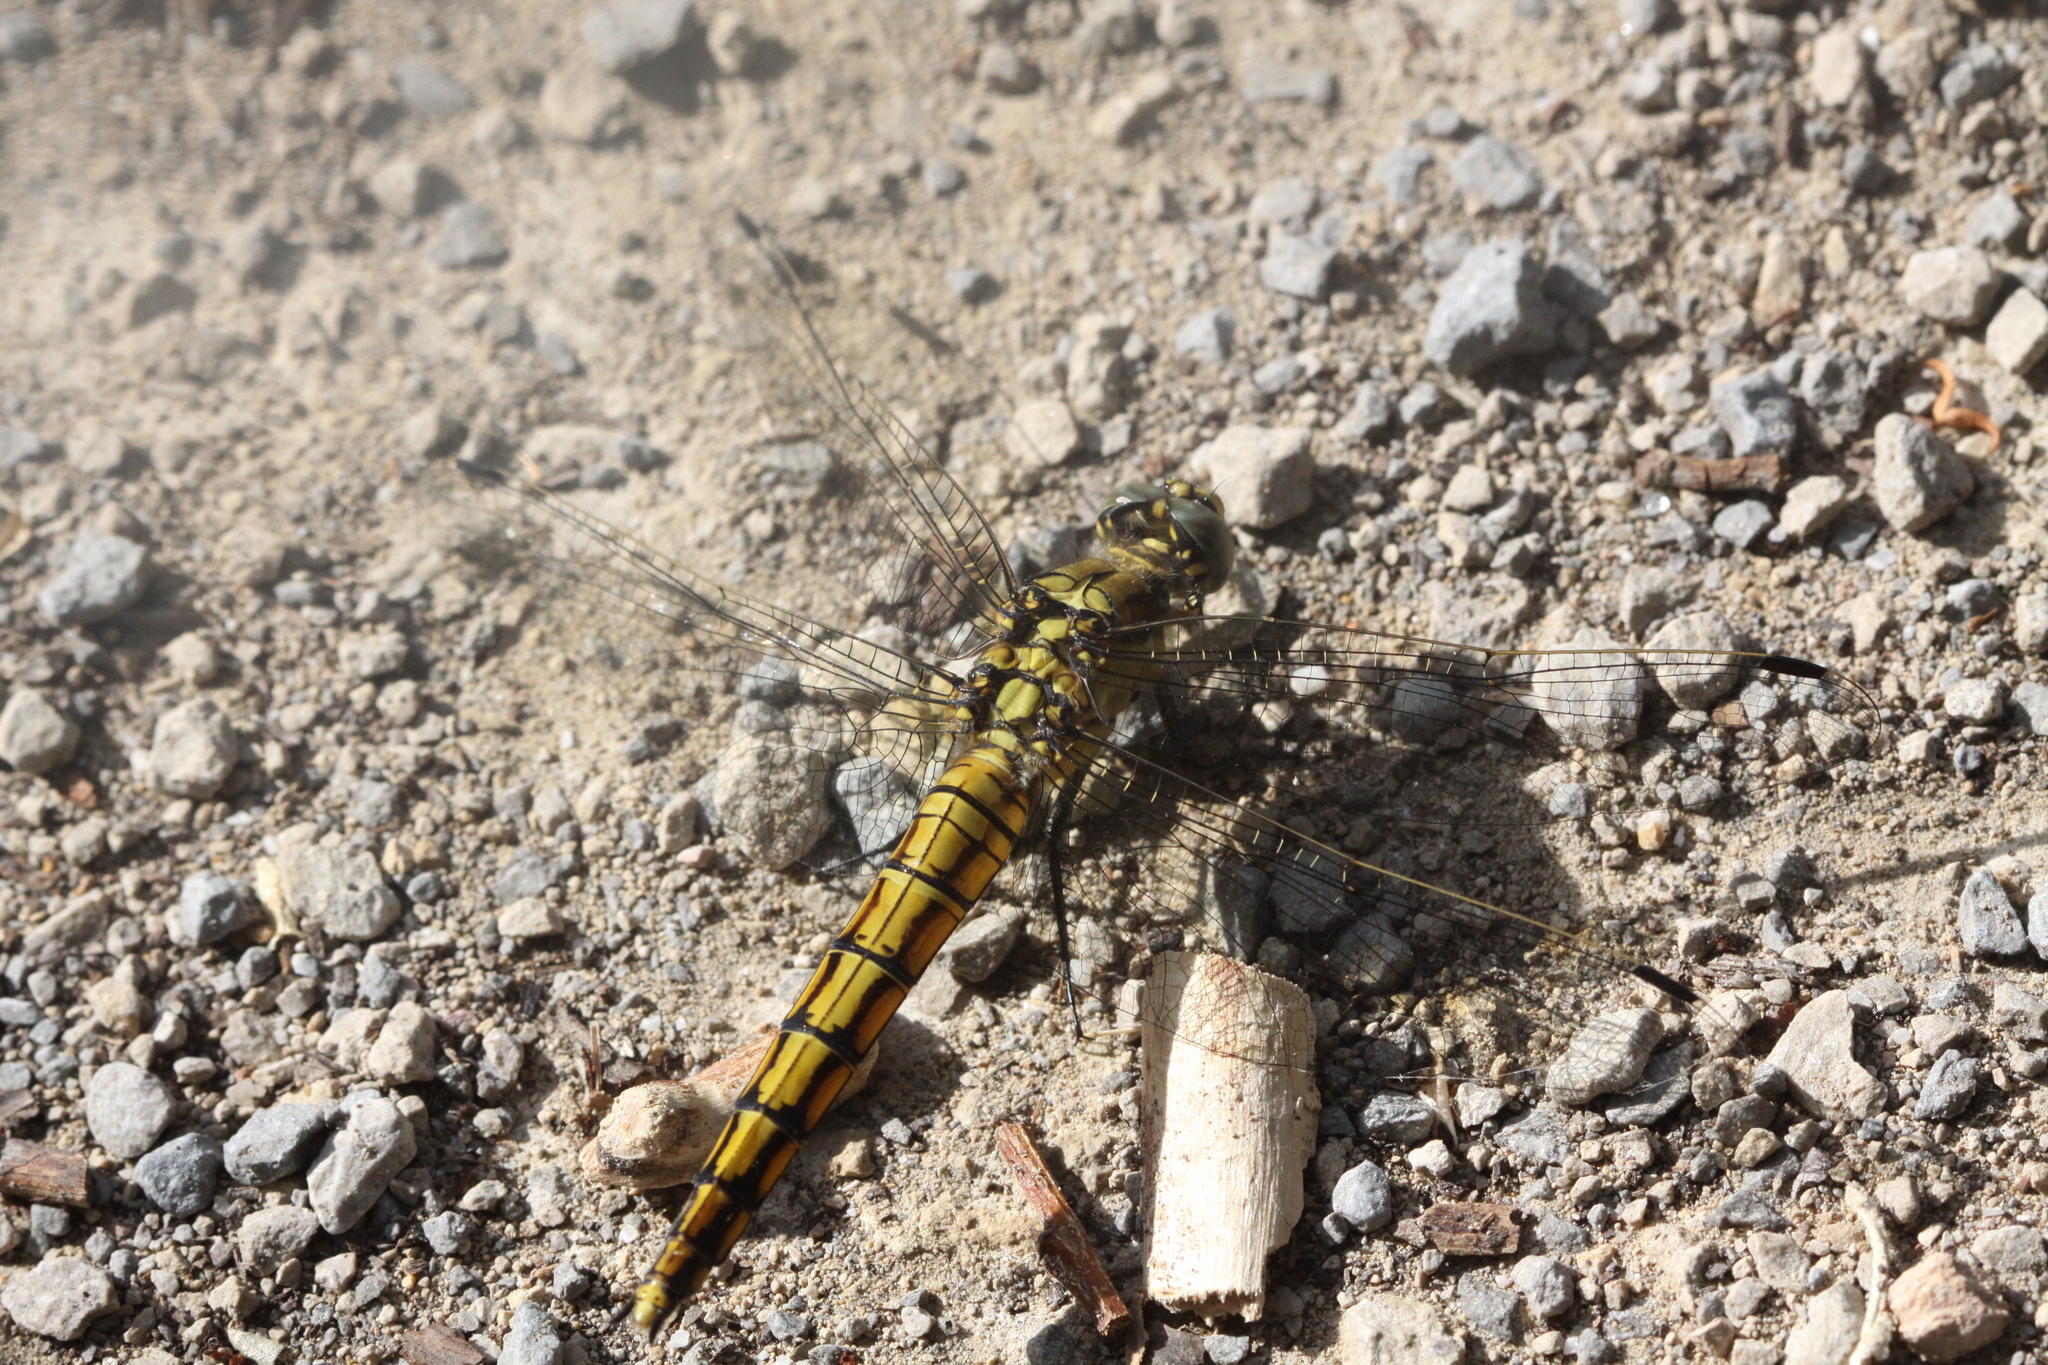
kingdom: Animalia
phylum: Arthropoda
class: Insecta
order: Odonata
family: Libellulidae
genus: Orthetrum
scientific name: Orthetrum cancellatum
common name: Black-tailed skimmer
